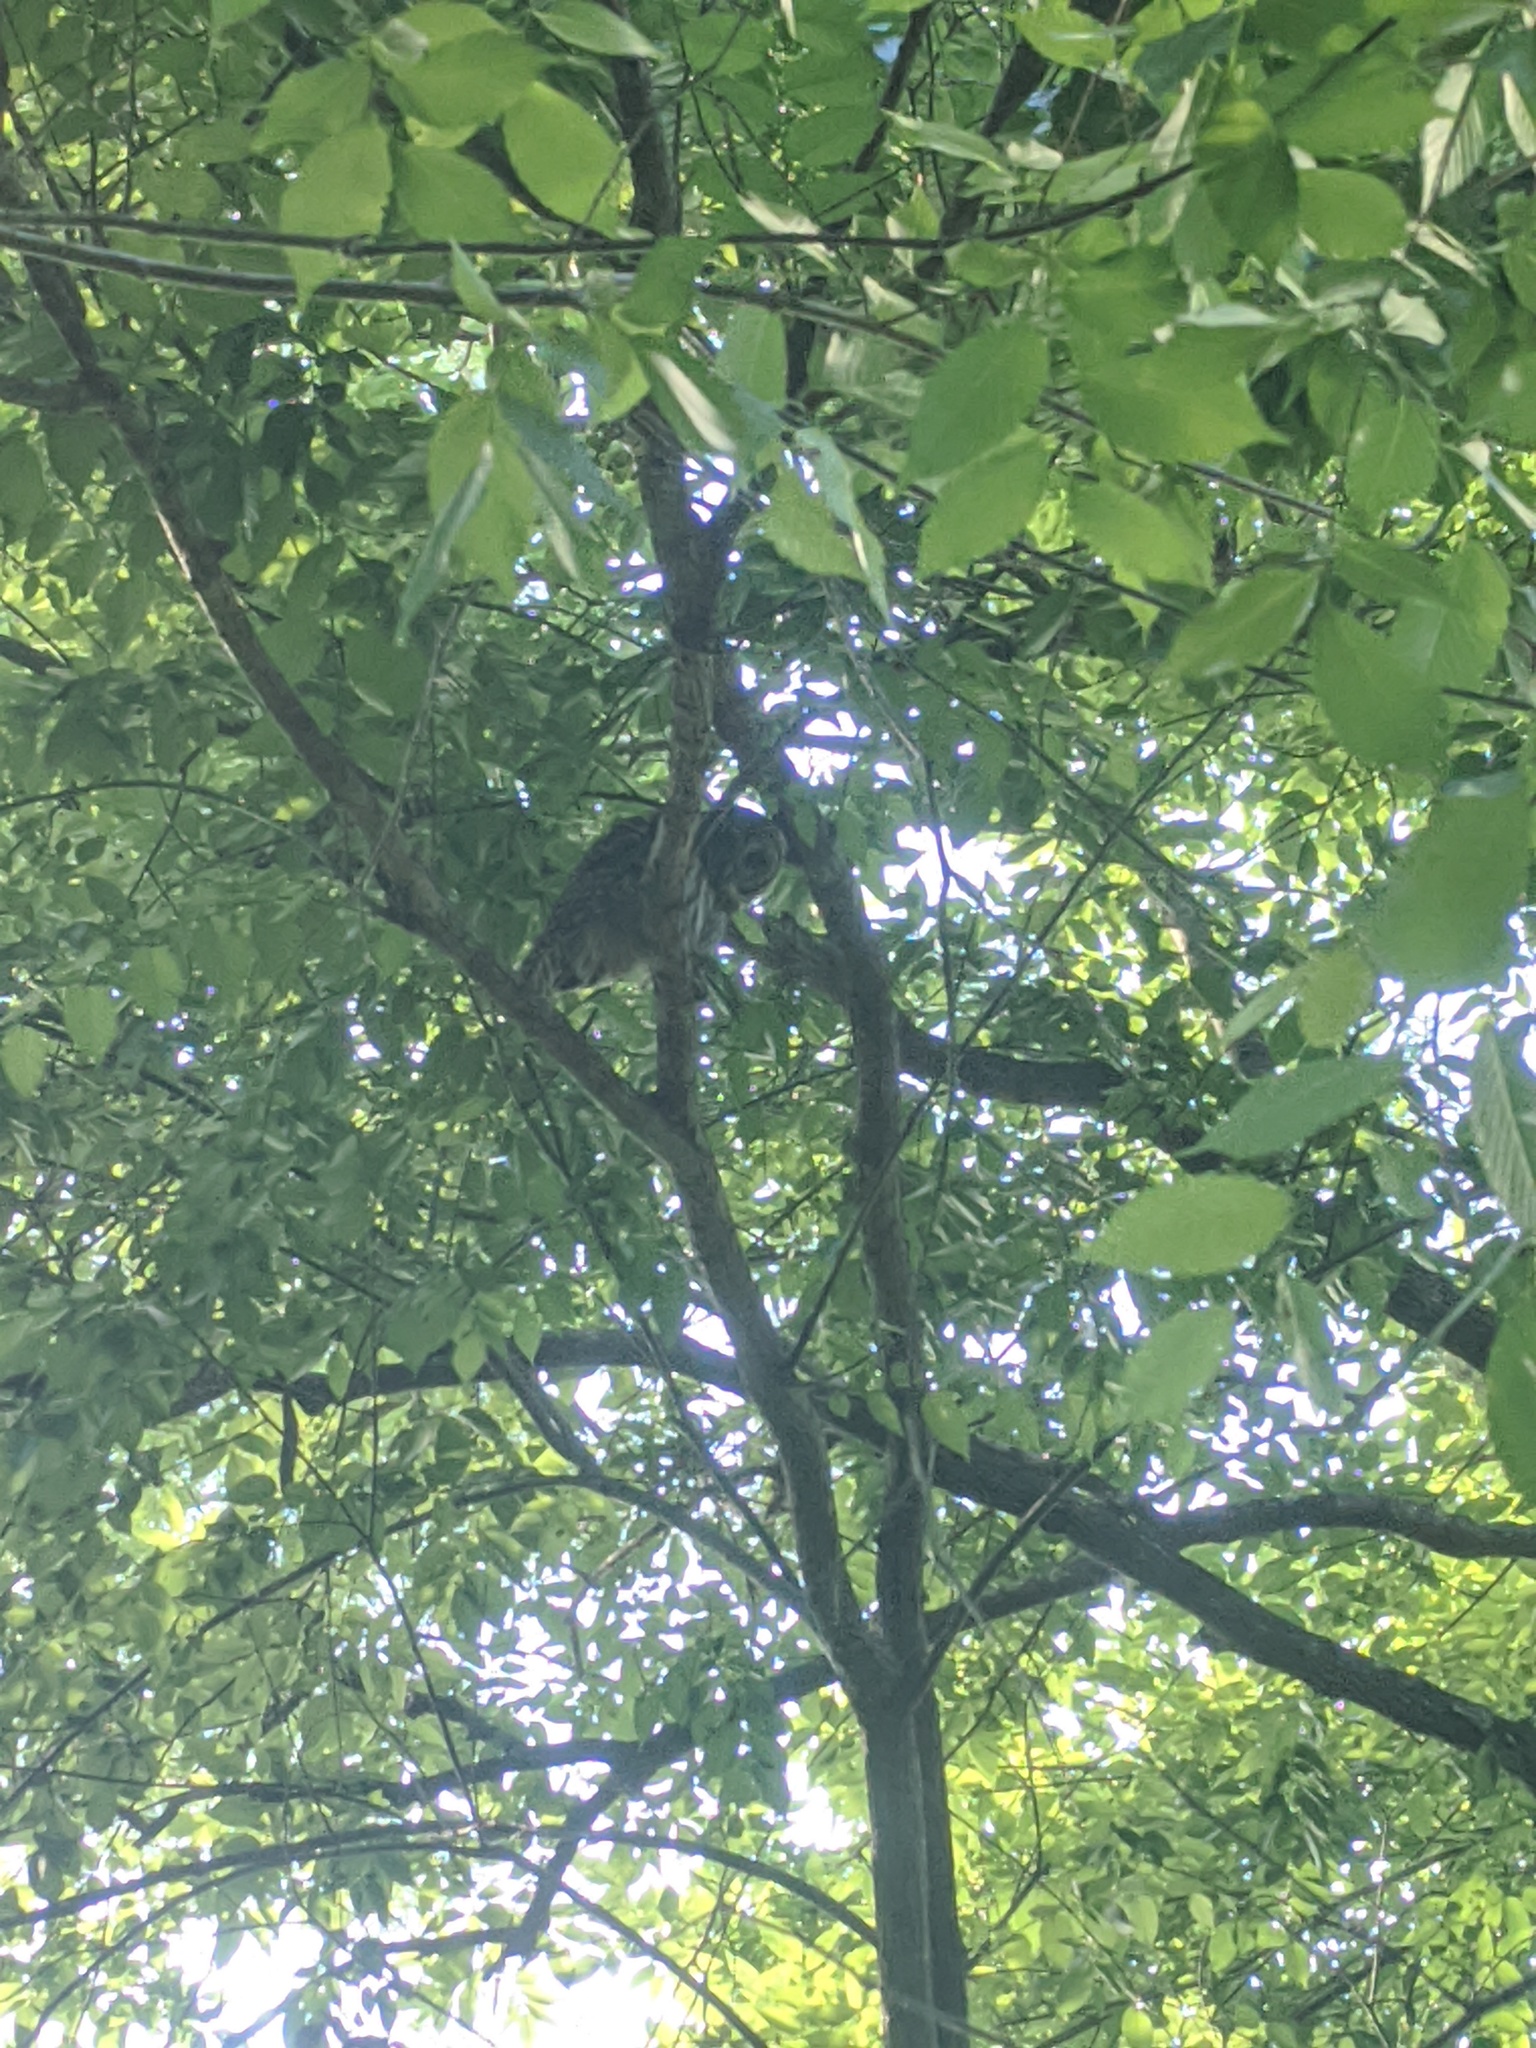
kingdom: Animalia
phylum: Chordata
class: Aves
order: Strigiformes
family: Strigidae
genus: Strix
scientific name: Strix varia
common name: Barred owl
